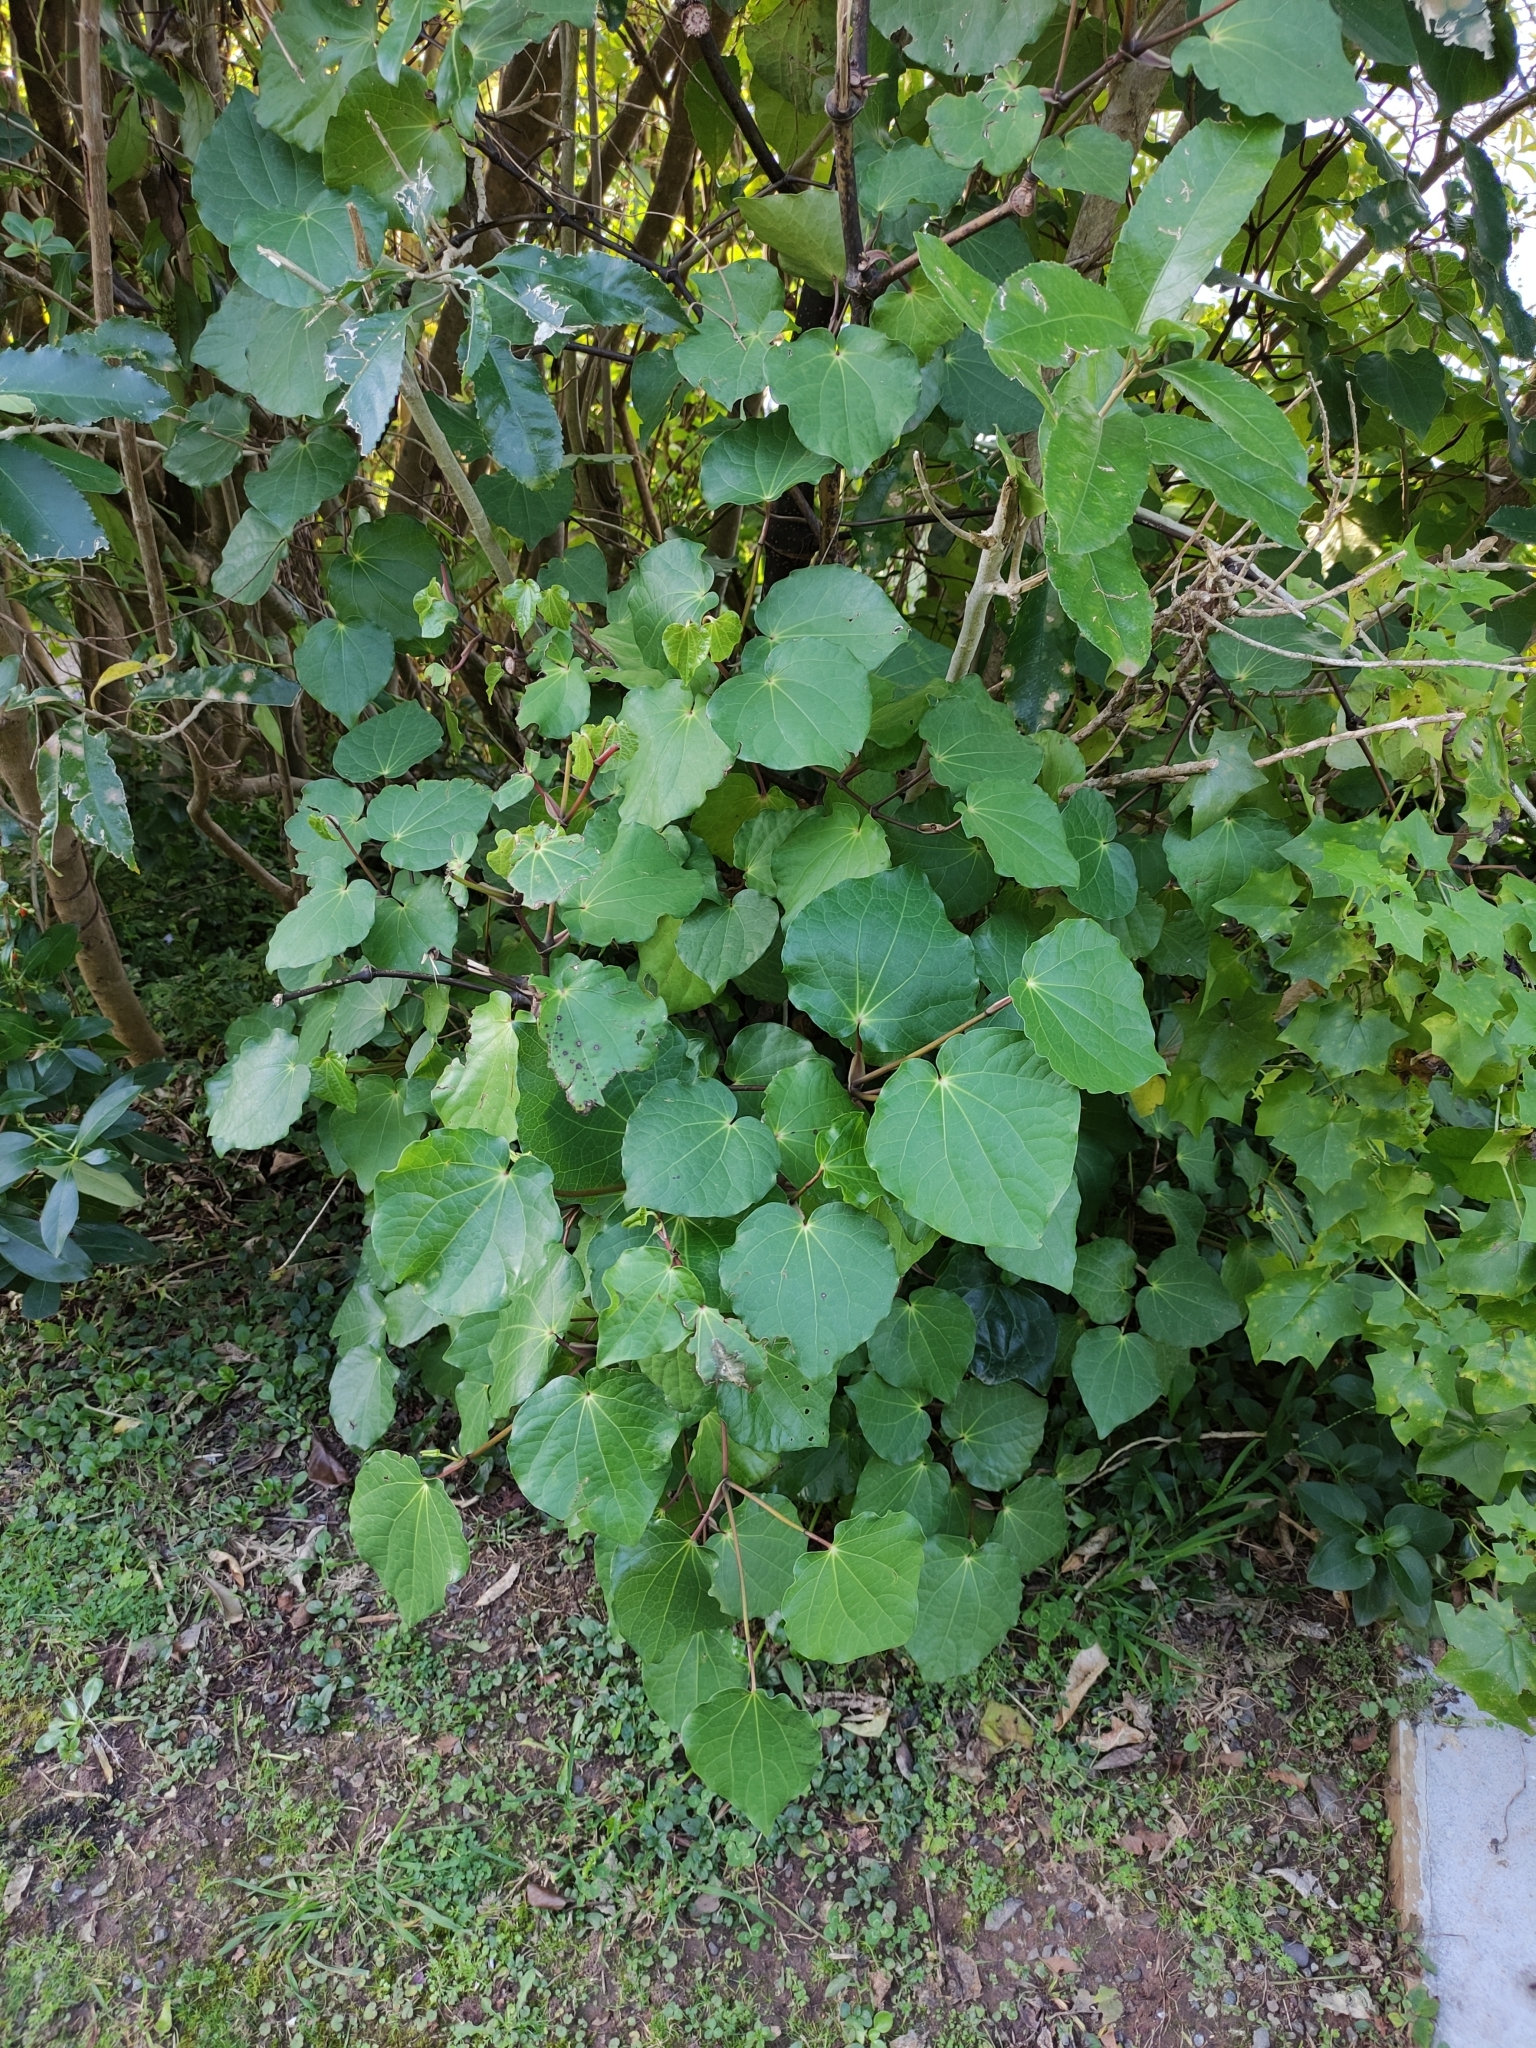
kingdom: Plantae
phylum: Tracheophyta
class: Magnoliopsida
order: Piperales
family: Piperaceae
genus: Macropiper
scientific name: Macropiper excelsum
